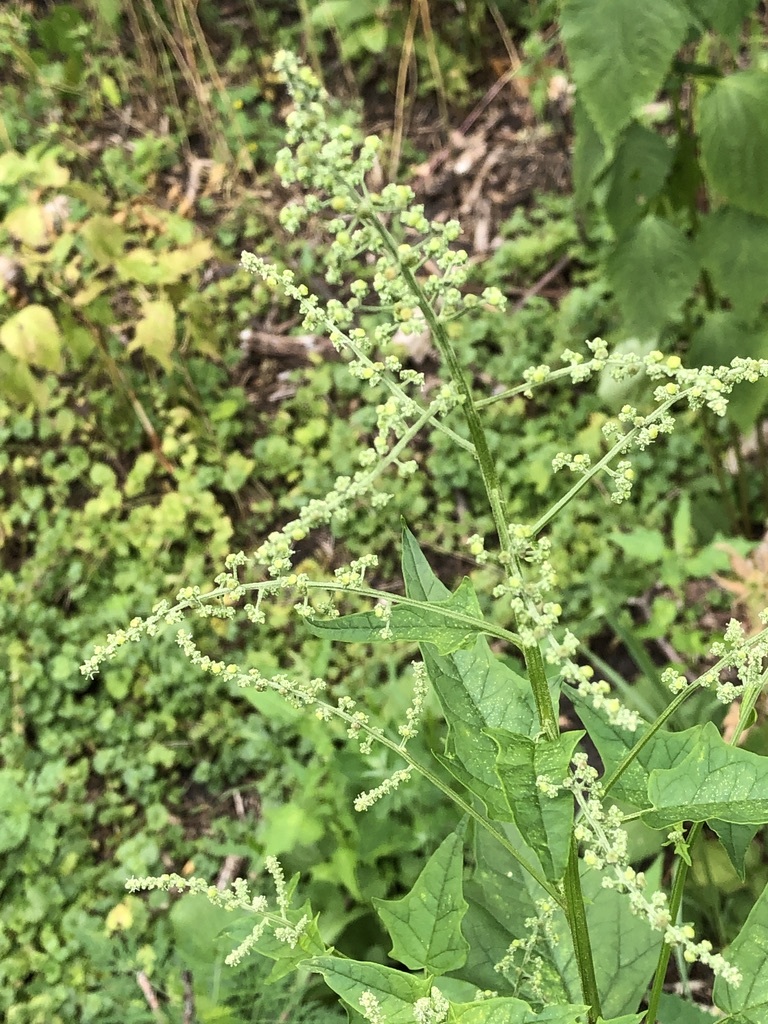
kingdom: Plantae
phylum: Tracheophyta
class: Magnoliopsida
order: Caryophyllales
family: Amaranthaceae
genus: Chenopodiastrum
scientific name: Chenopodiastrum simplex
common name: Large-seed goosefoot
